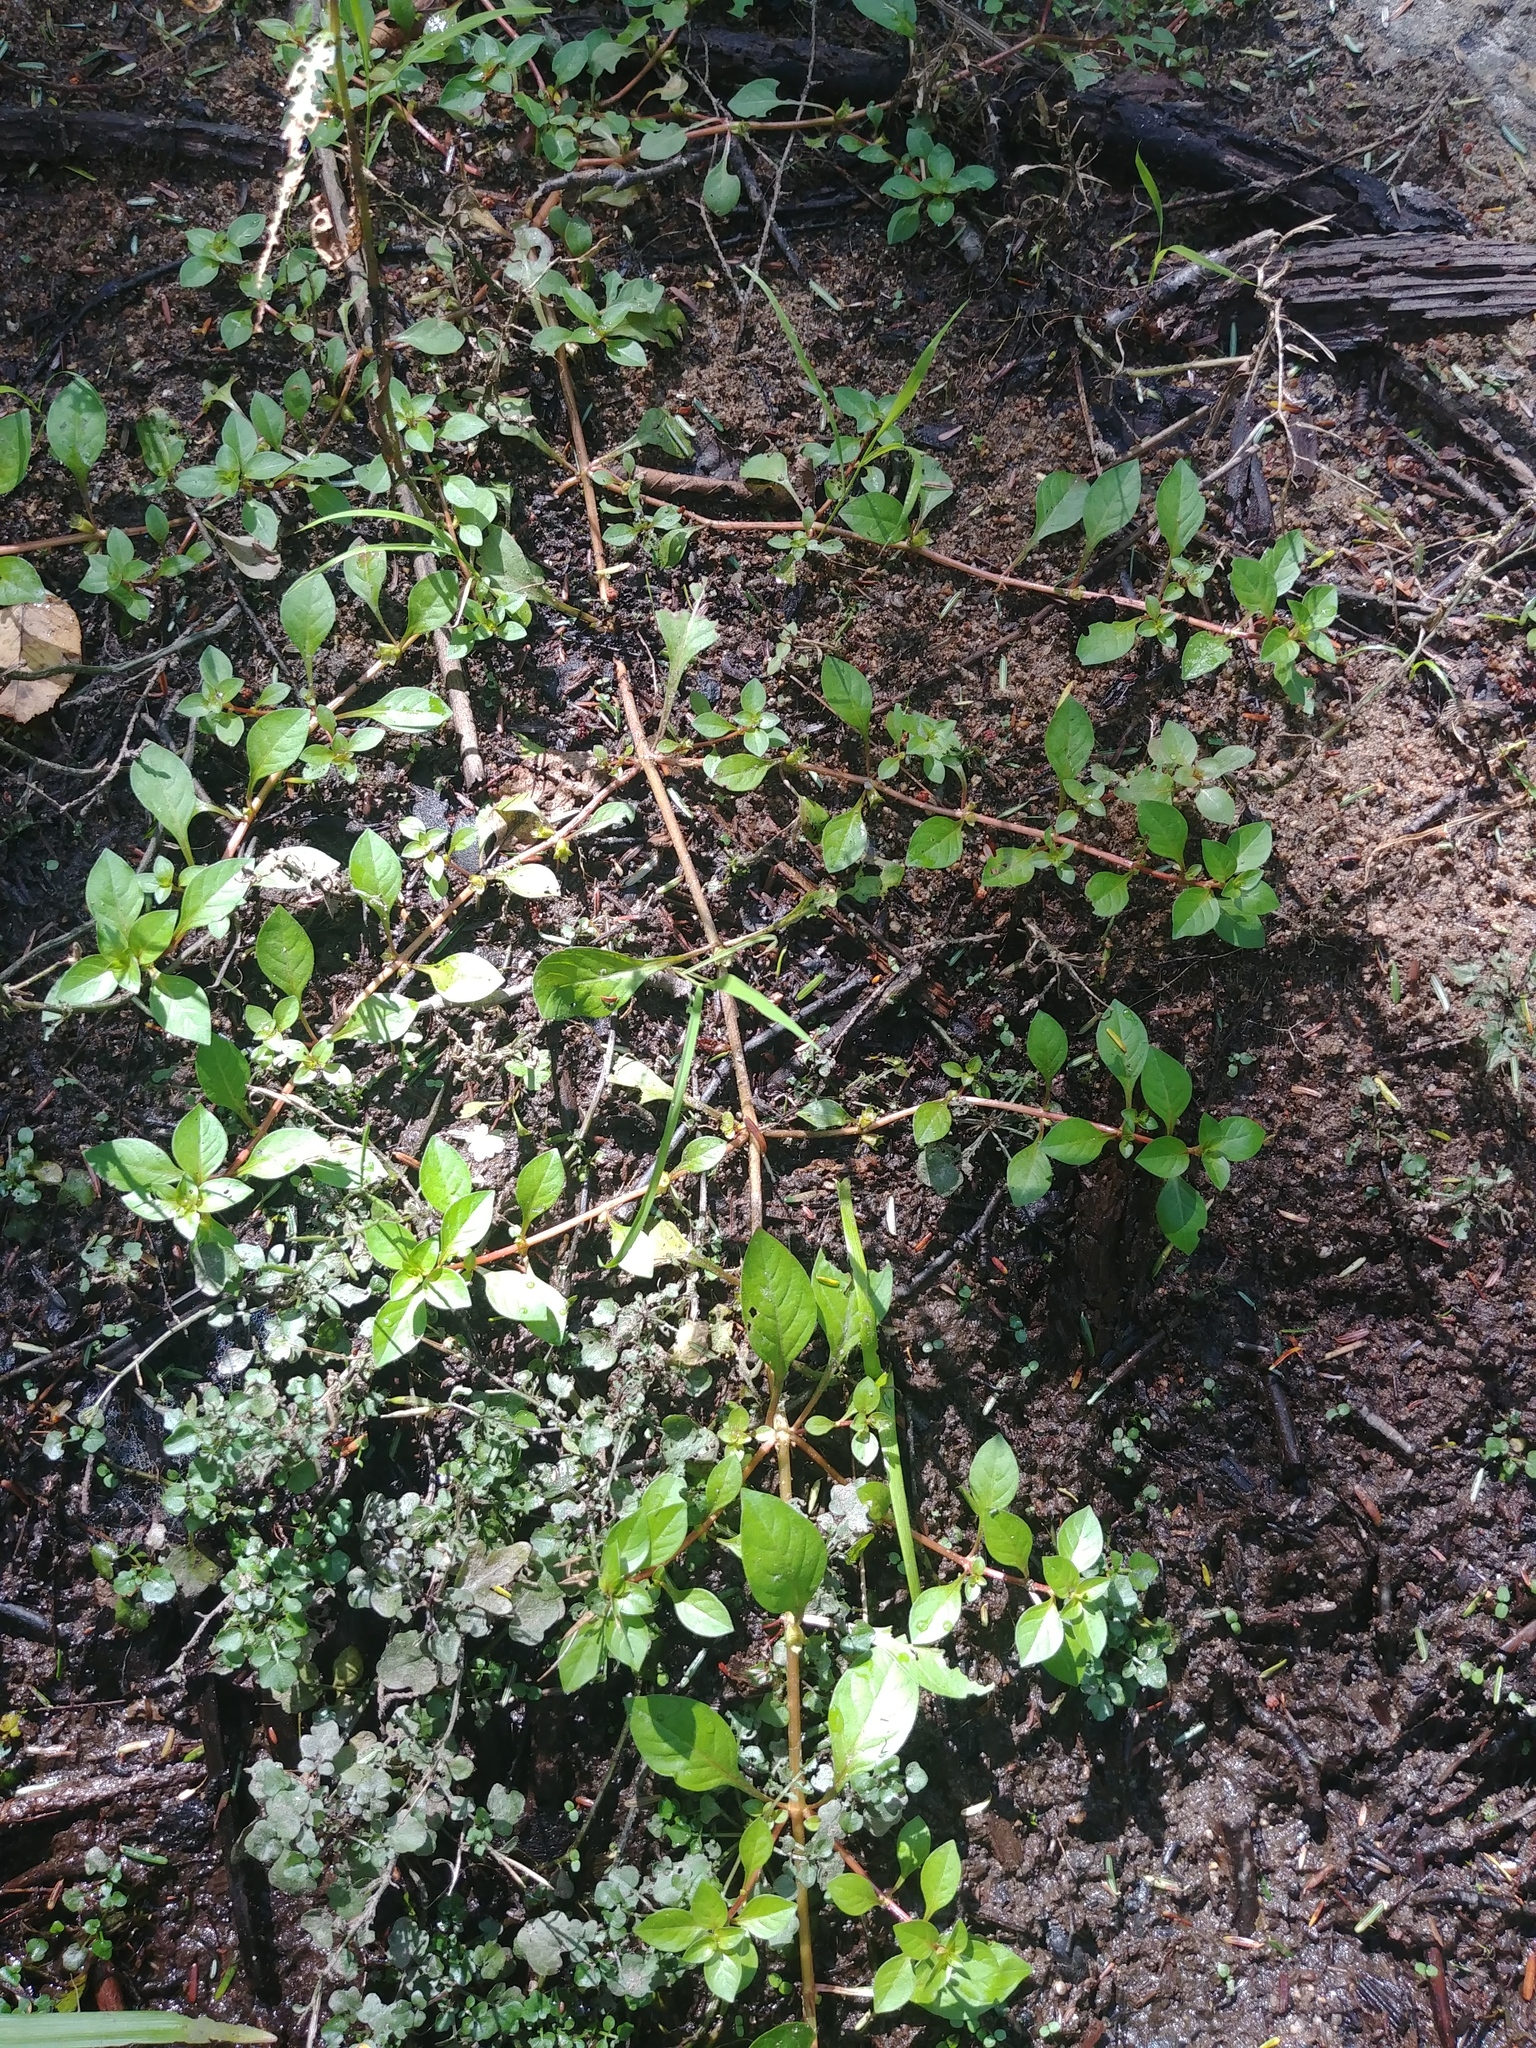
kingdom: Plantae
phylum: Tracheophyta
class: Magnoliopsida
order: Myrtales
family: Onagraceae
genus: Ludwigia
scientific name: Ludwigia palustris
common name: Hampshire-purslane
